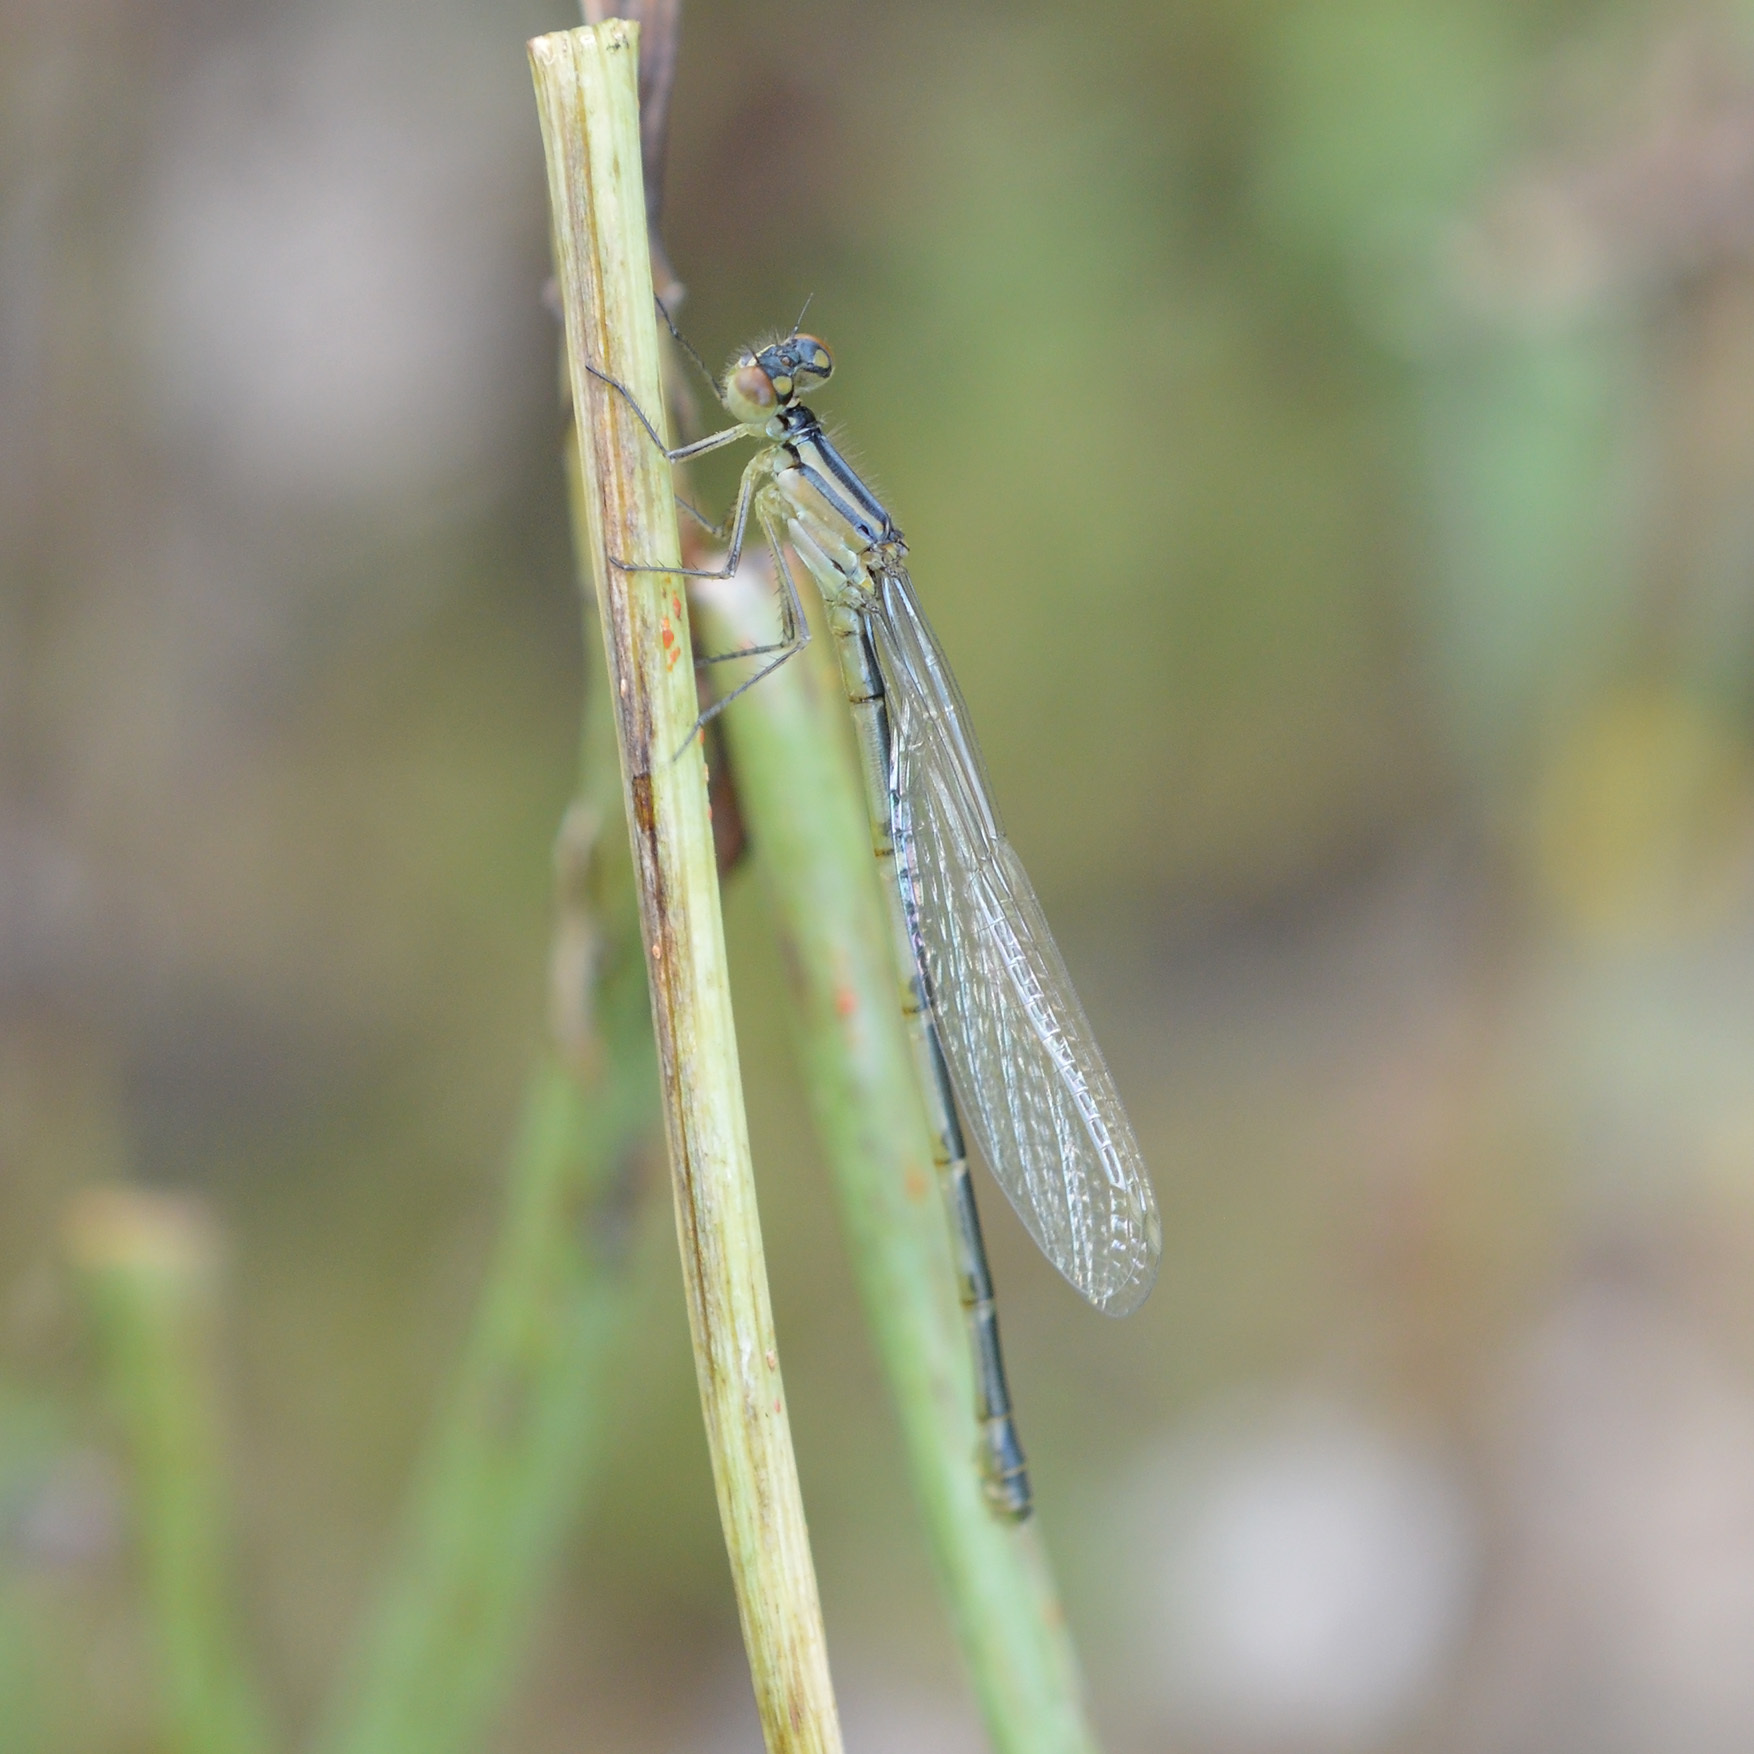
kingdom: Animalia
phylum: Arthropoda
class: Insecta
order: Odonata
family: Coenagrionidae
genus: Enallagma
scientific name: Enallagma cyathigerum
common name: Common blue damselfly
